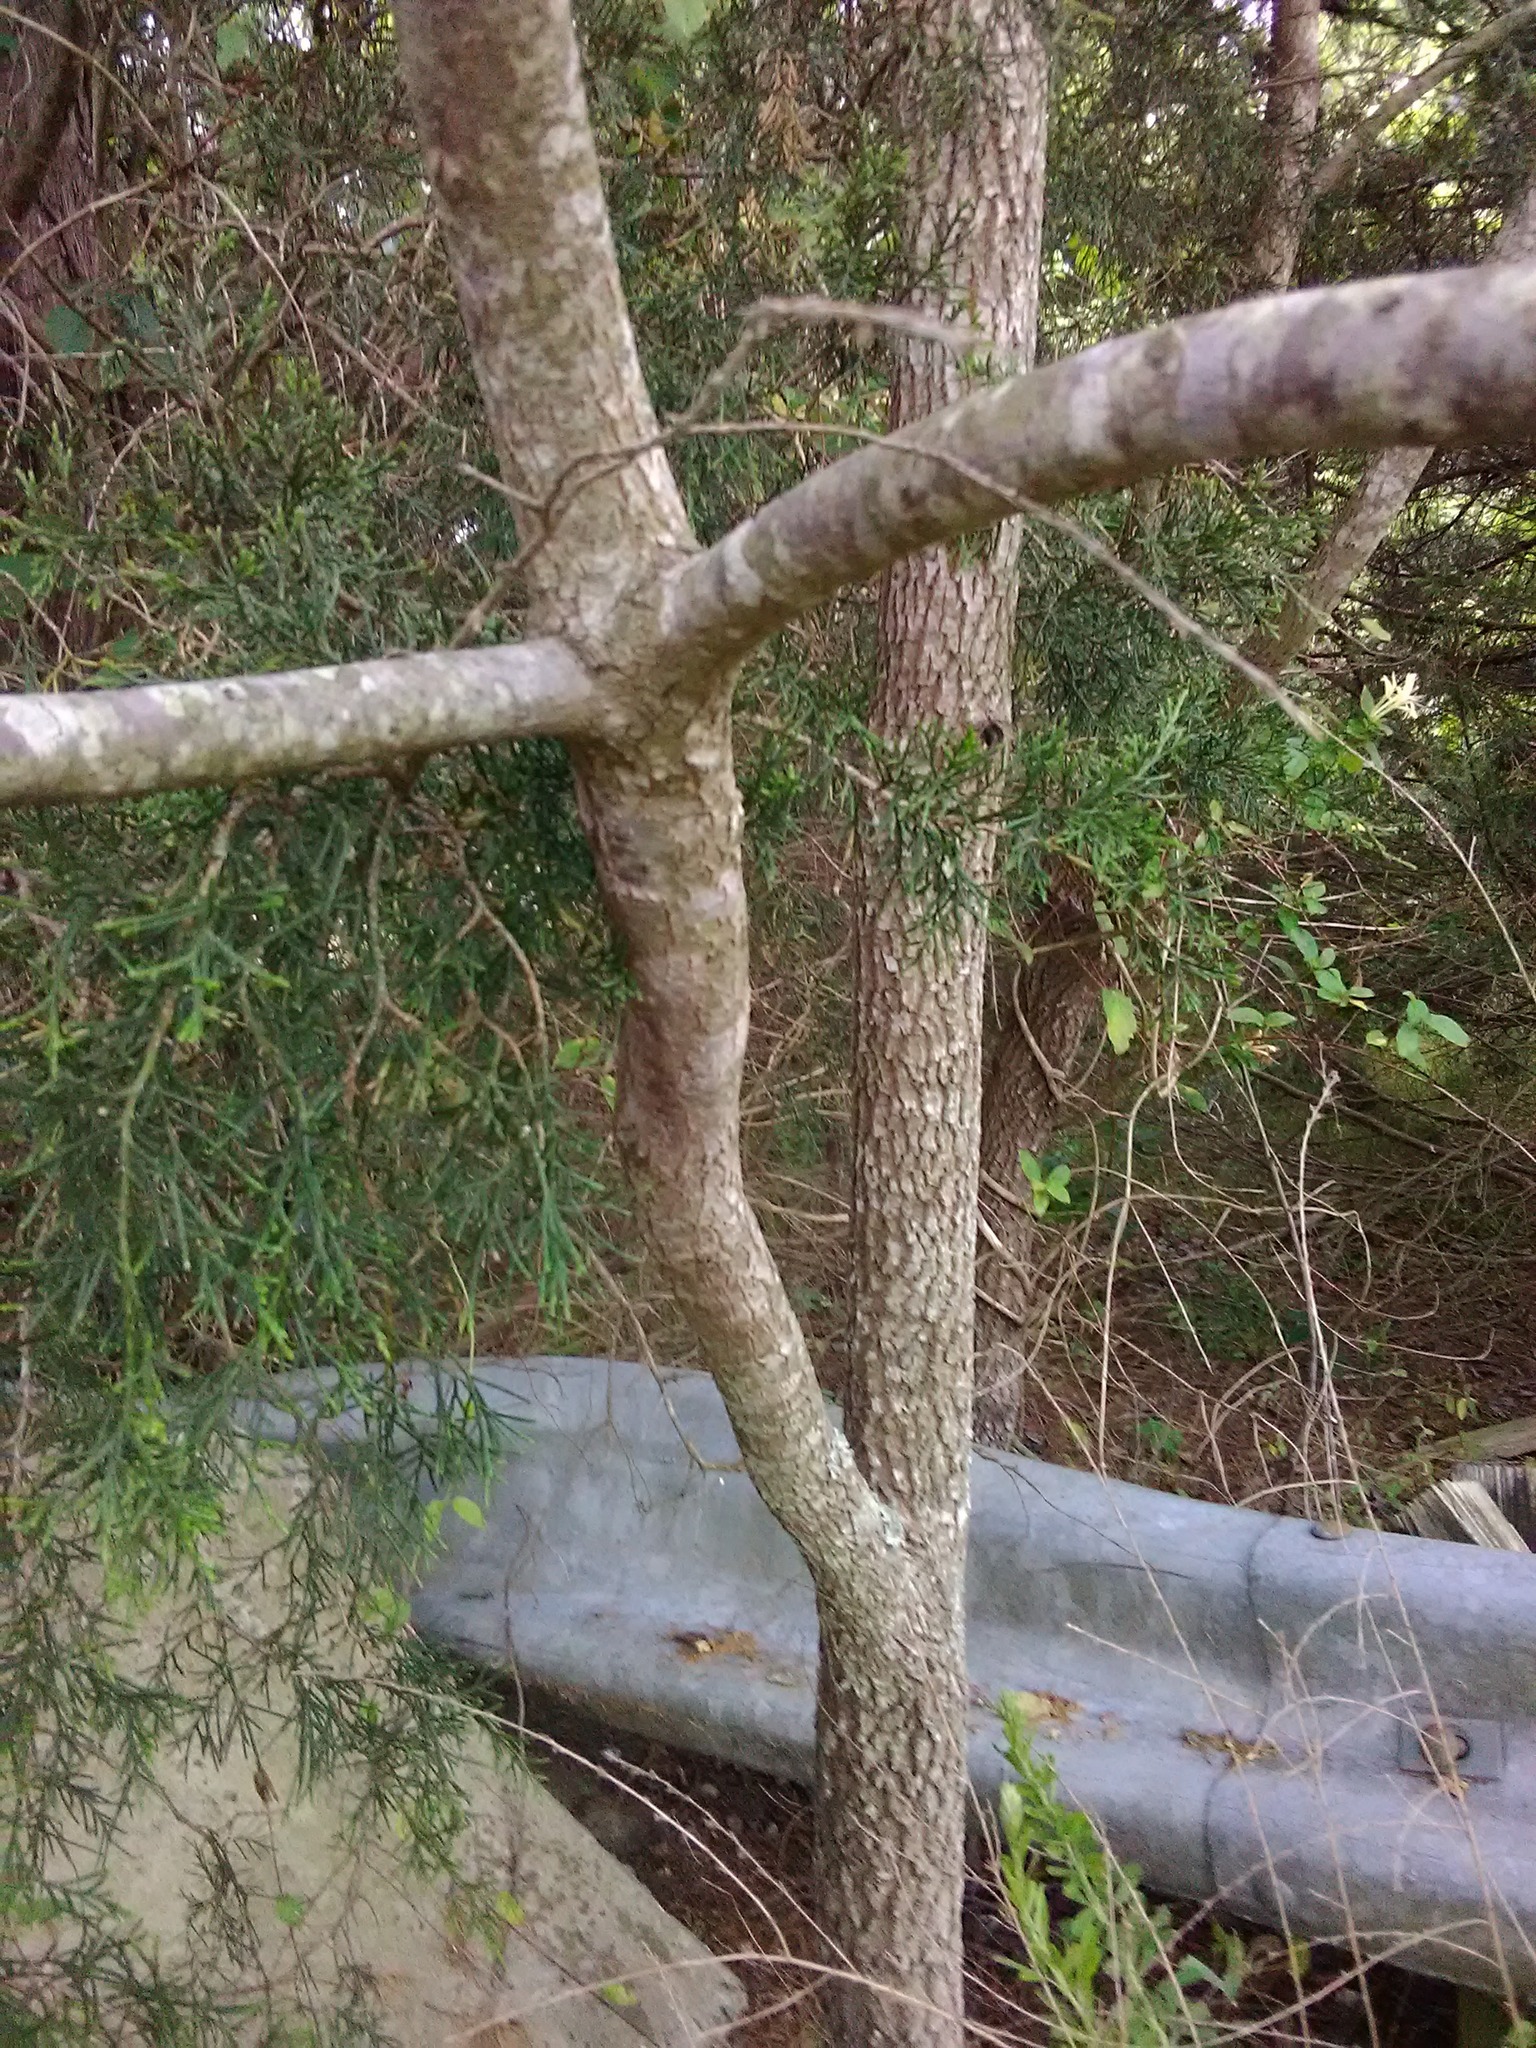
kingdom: Plantae
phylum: Tracheophyta
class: Magnoliopsida
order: Ericales
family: Ebenaceae
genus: Diospyros
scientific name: Diospyros virginiana
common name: Persimmon
